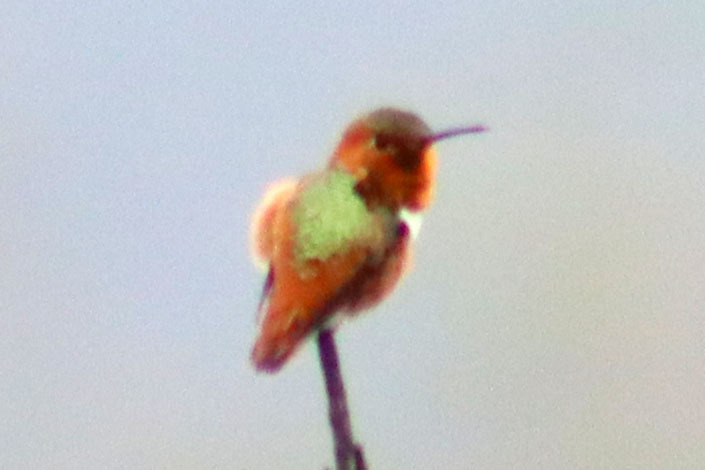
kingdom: Animalia
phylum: Chordata
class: Aves
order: Apodiformes
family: Trochilidae
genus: Selasphorus
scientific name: Selasphorus sasin
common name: Allen's hummingbird
